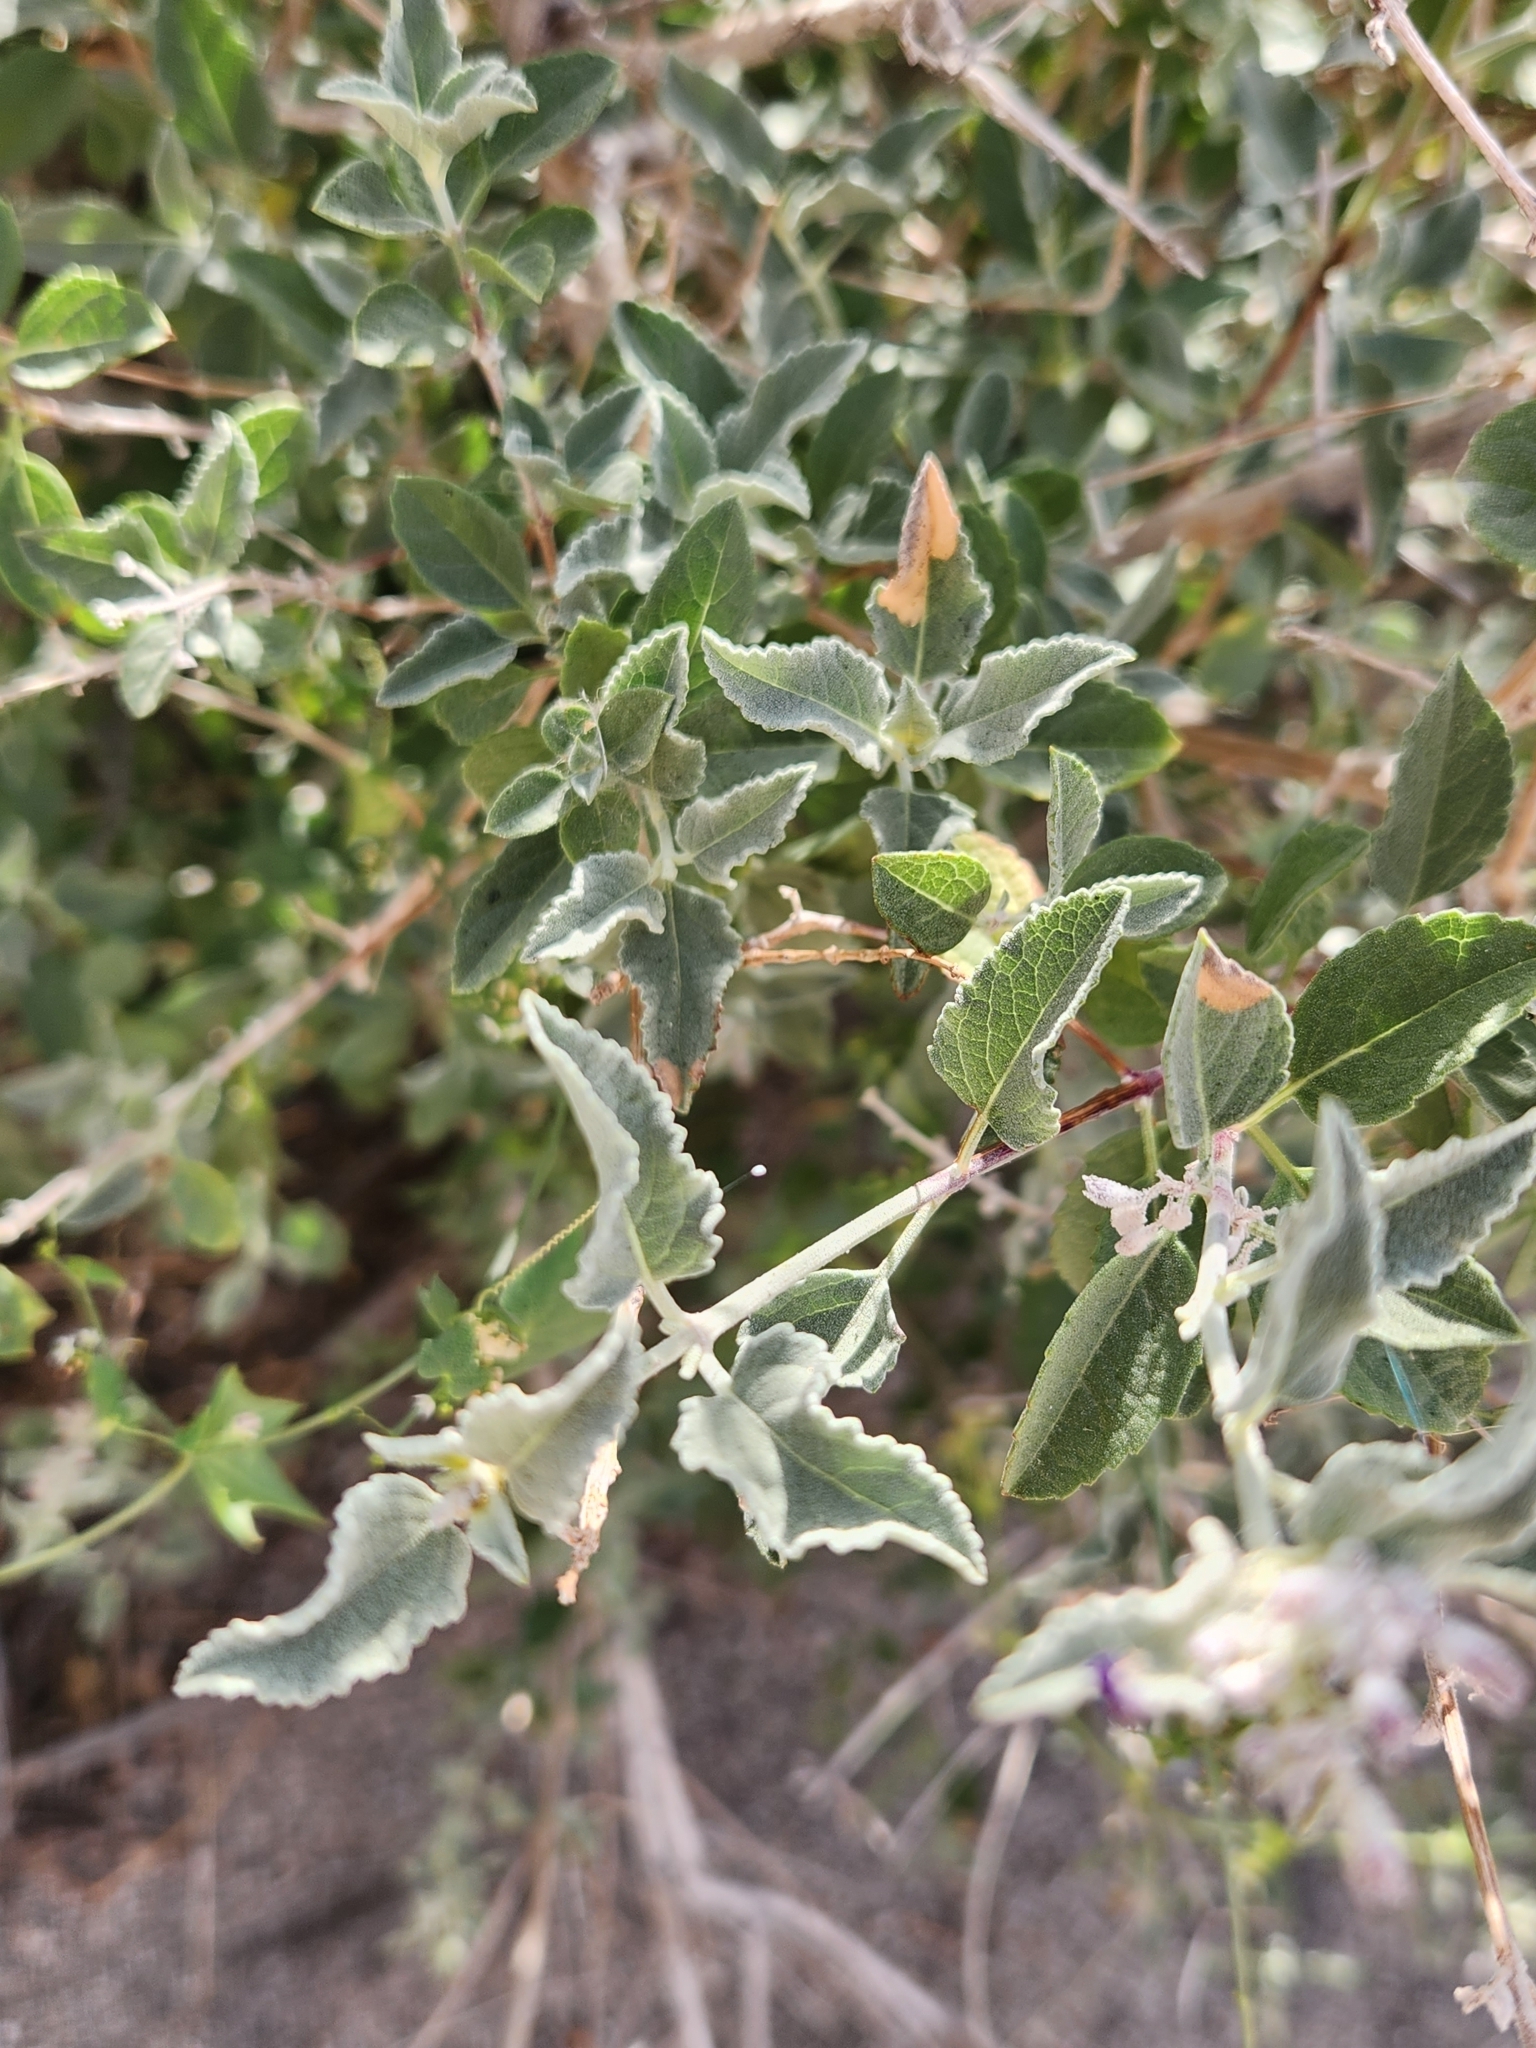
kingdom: Plantae
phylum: Tracheophyta
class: Magnoliopsida
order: Lamiales
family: Lamiaceae
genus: Condea
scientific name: Condea emoryi
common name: Chia
